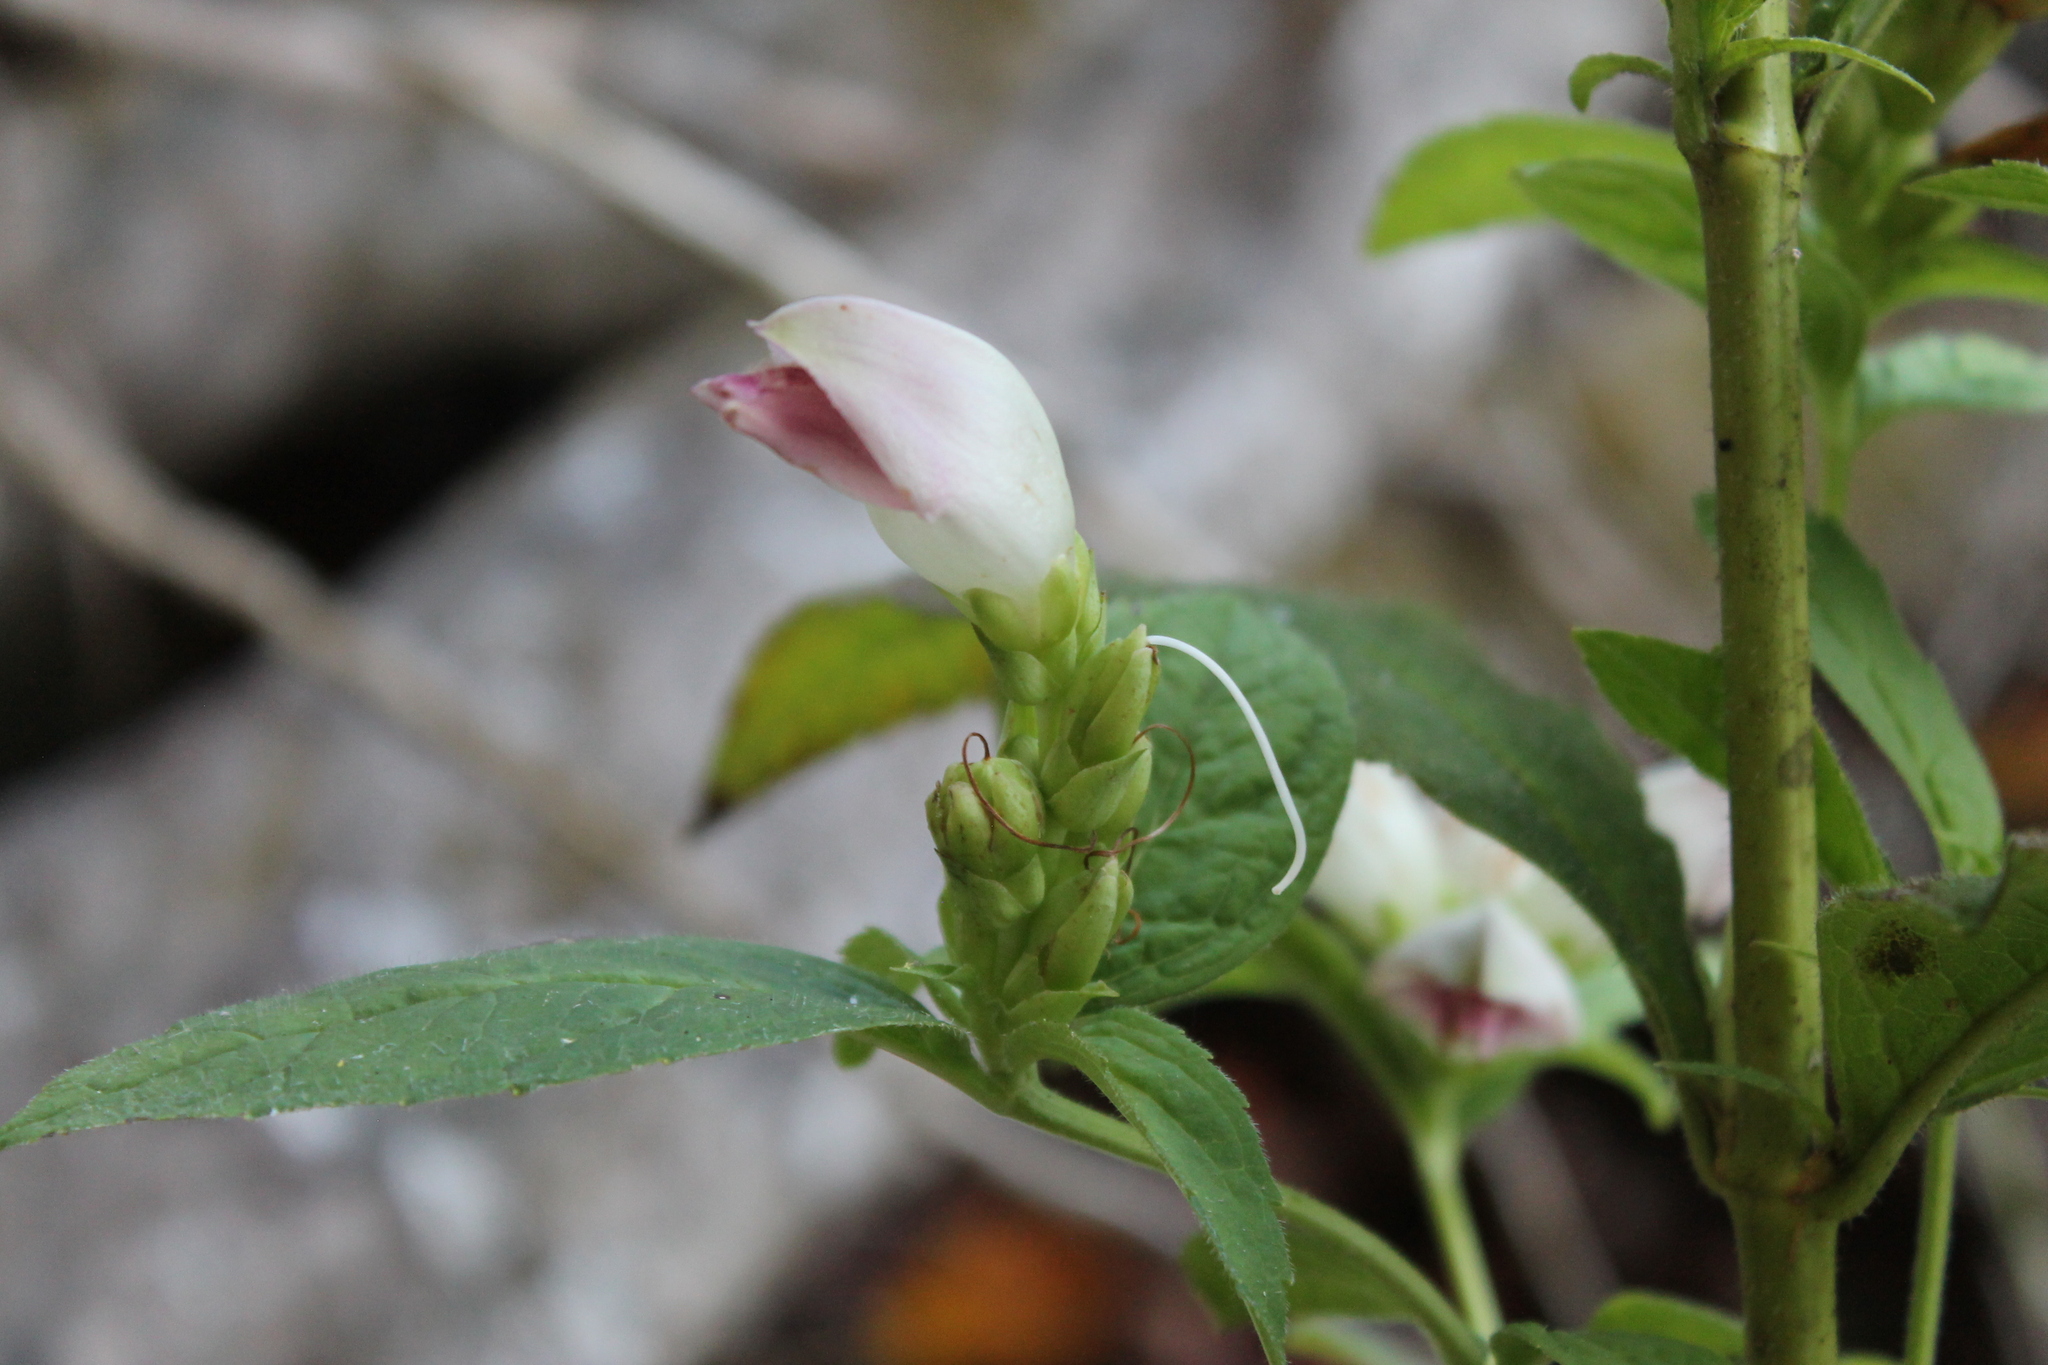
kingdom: Plantae
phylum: Tracheophyta
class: Magnoliopsida
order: Lamiales
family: Plantaginaceae
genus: Chelone
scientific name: Chelone glabra
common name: Snakehead
